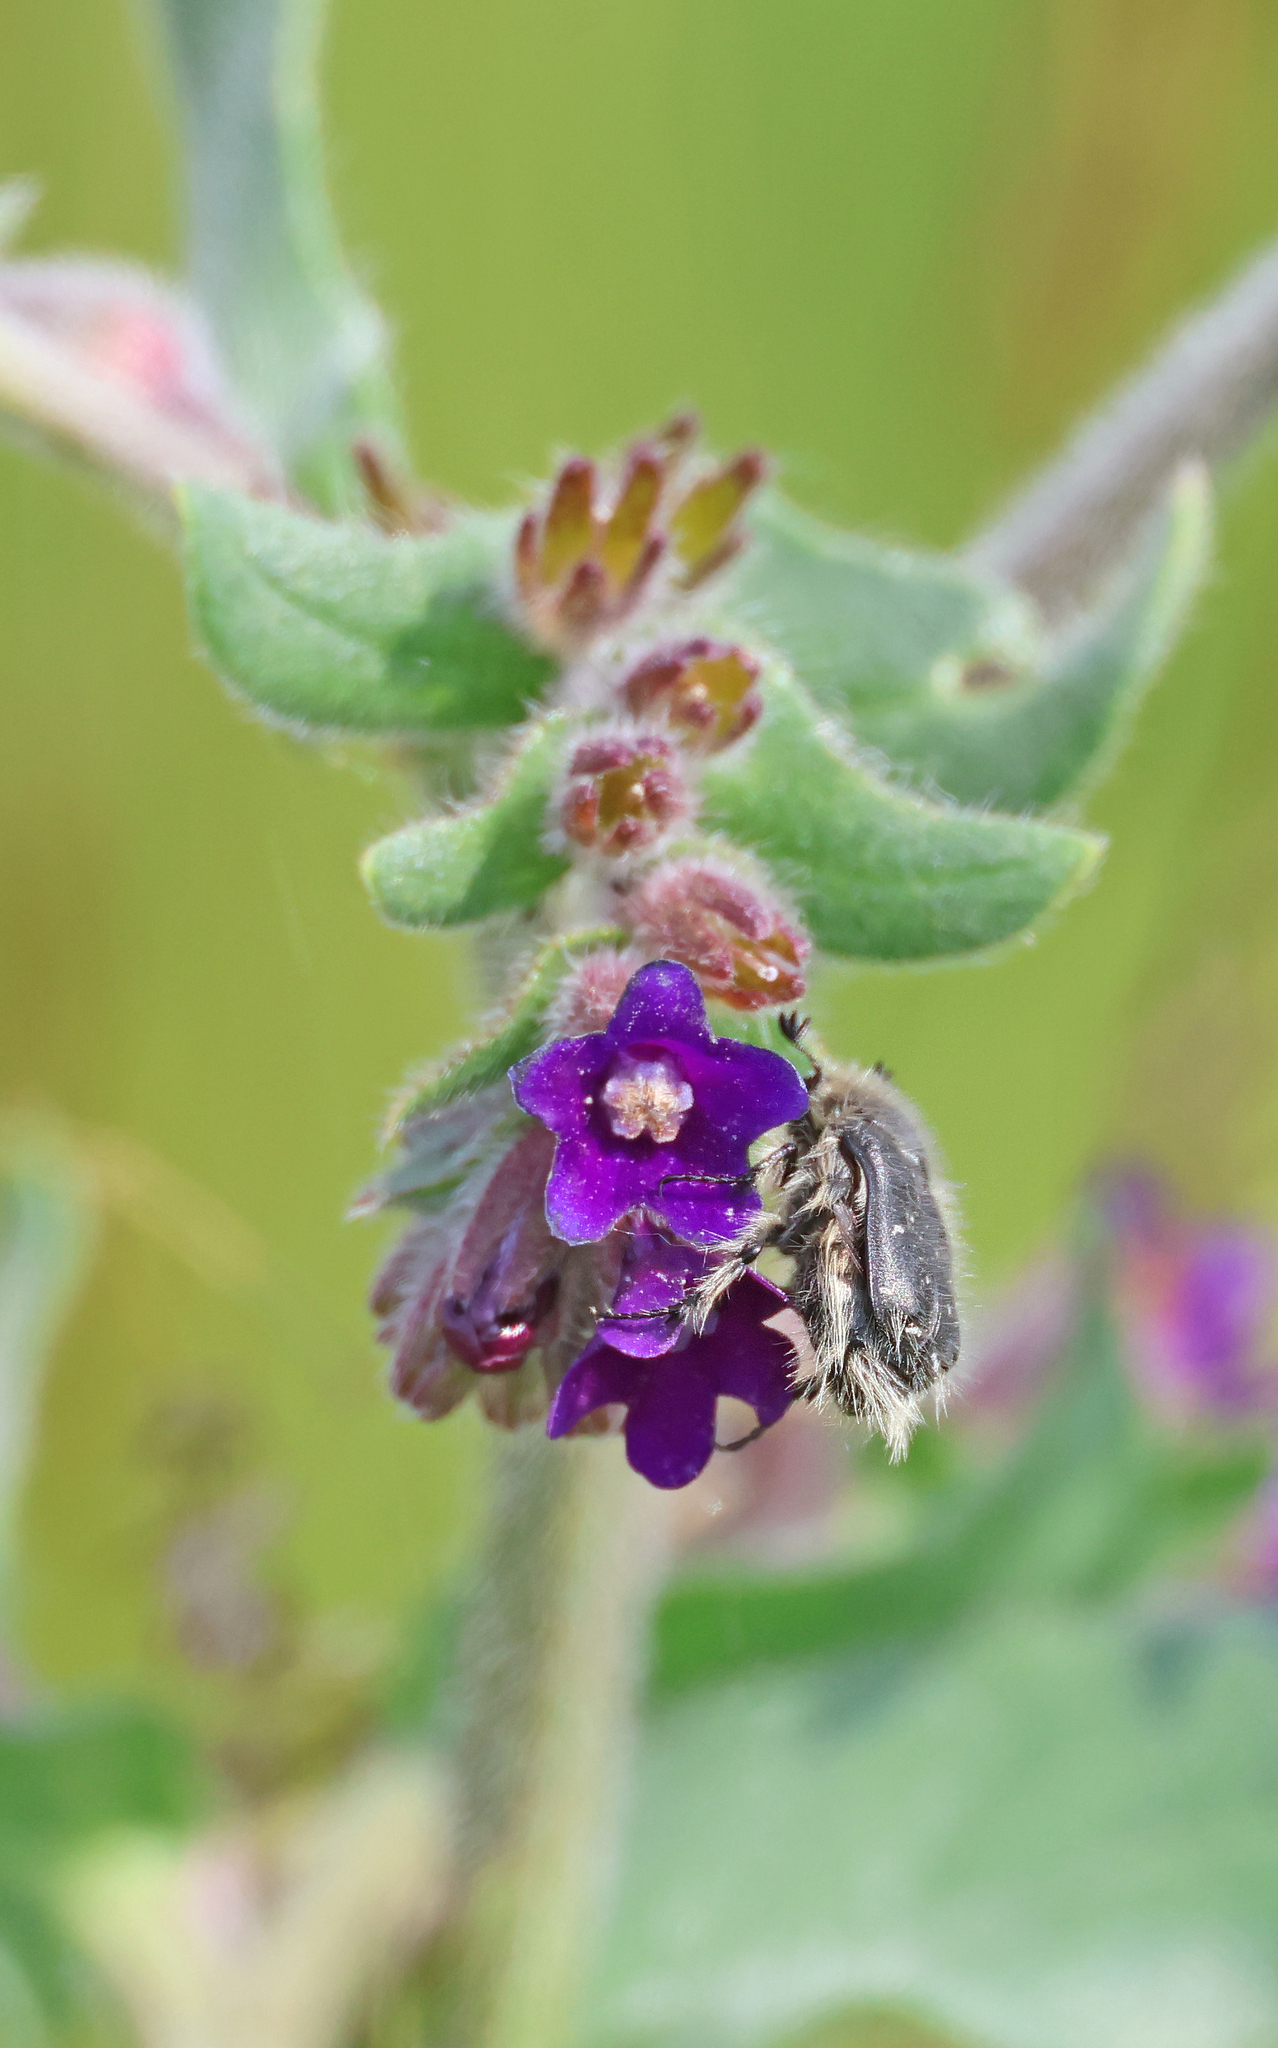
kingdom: Animalia
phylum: Arthropoda
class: Insecta
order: Coleoptera
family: Scarabaeidae
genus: Tropinota
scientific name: Tropinota hirta
